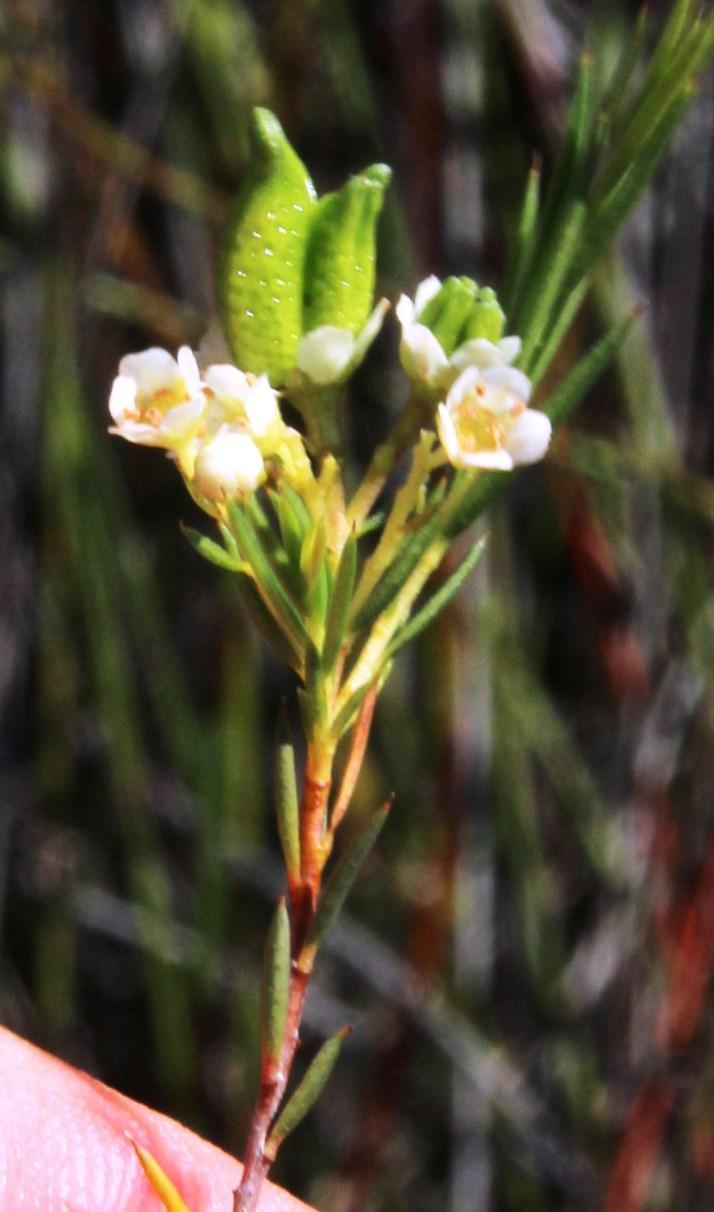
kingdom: Plantae
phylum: Tracheophyta
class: Magnoliopsida
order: Sapindales
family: Rutaceae
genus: Diosma
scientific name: Diosma hirsuta
